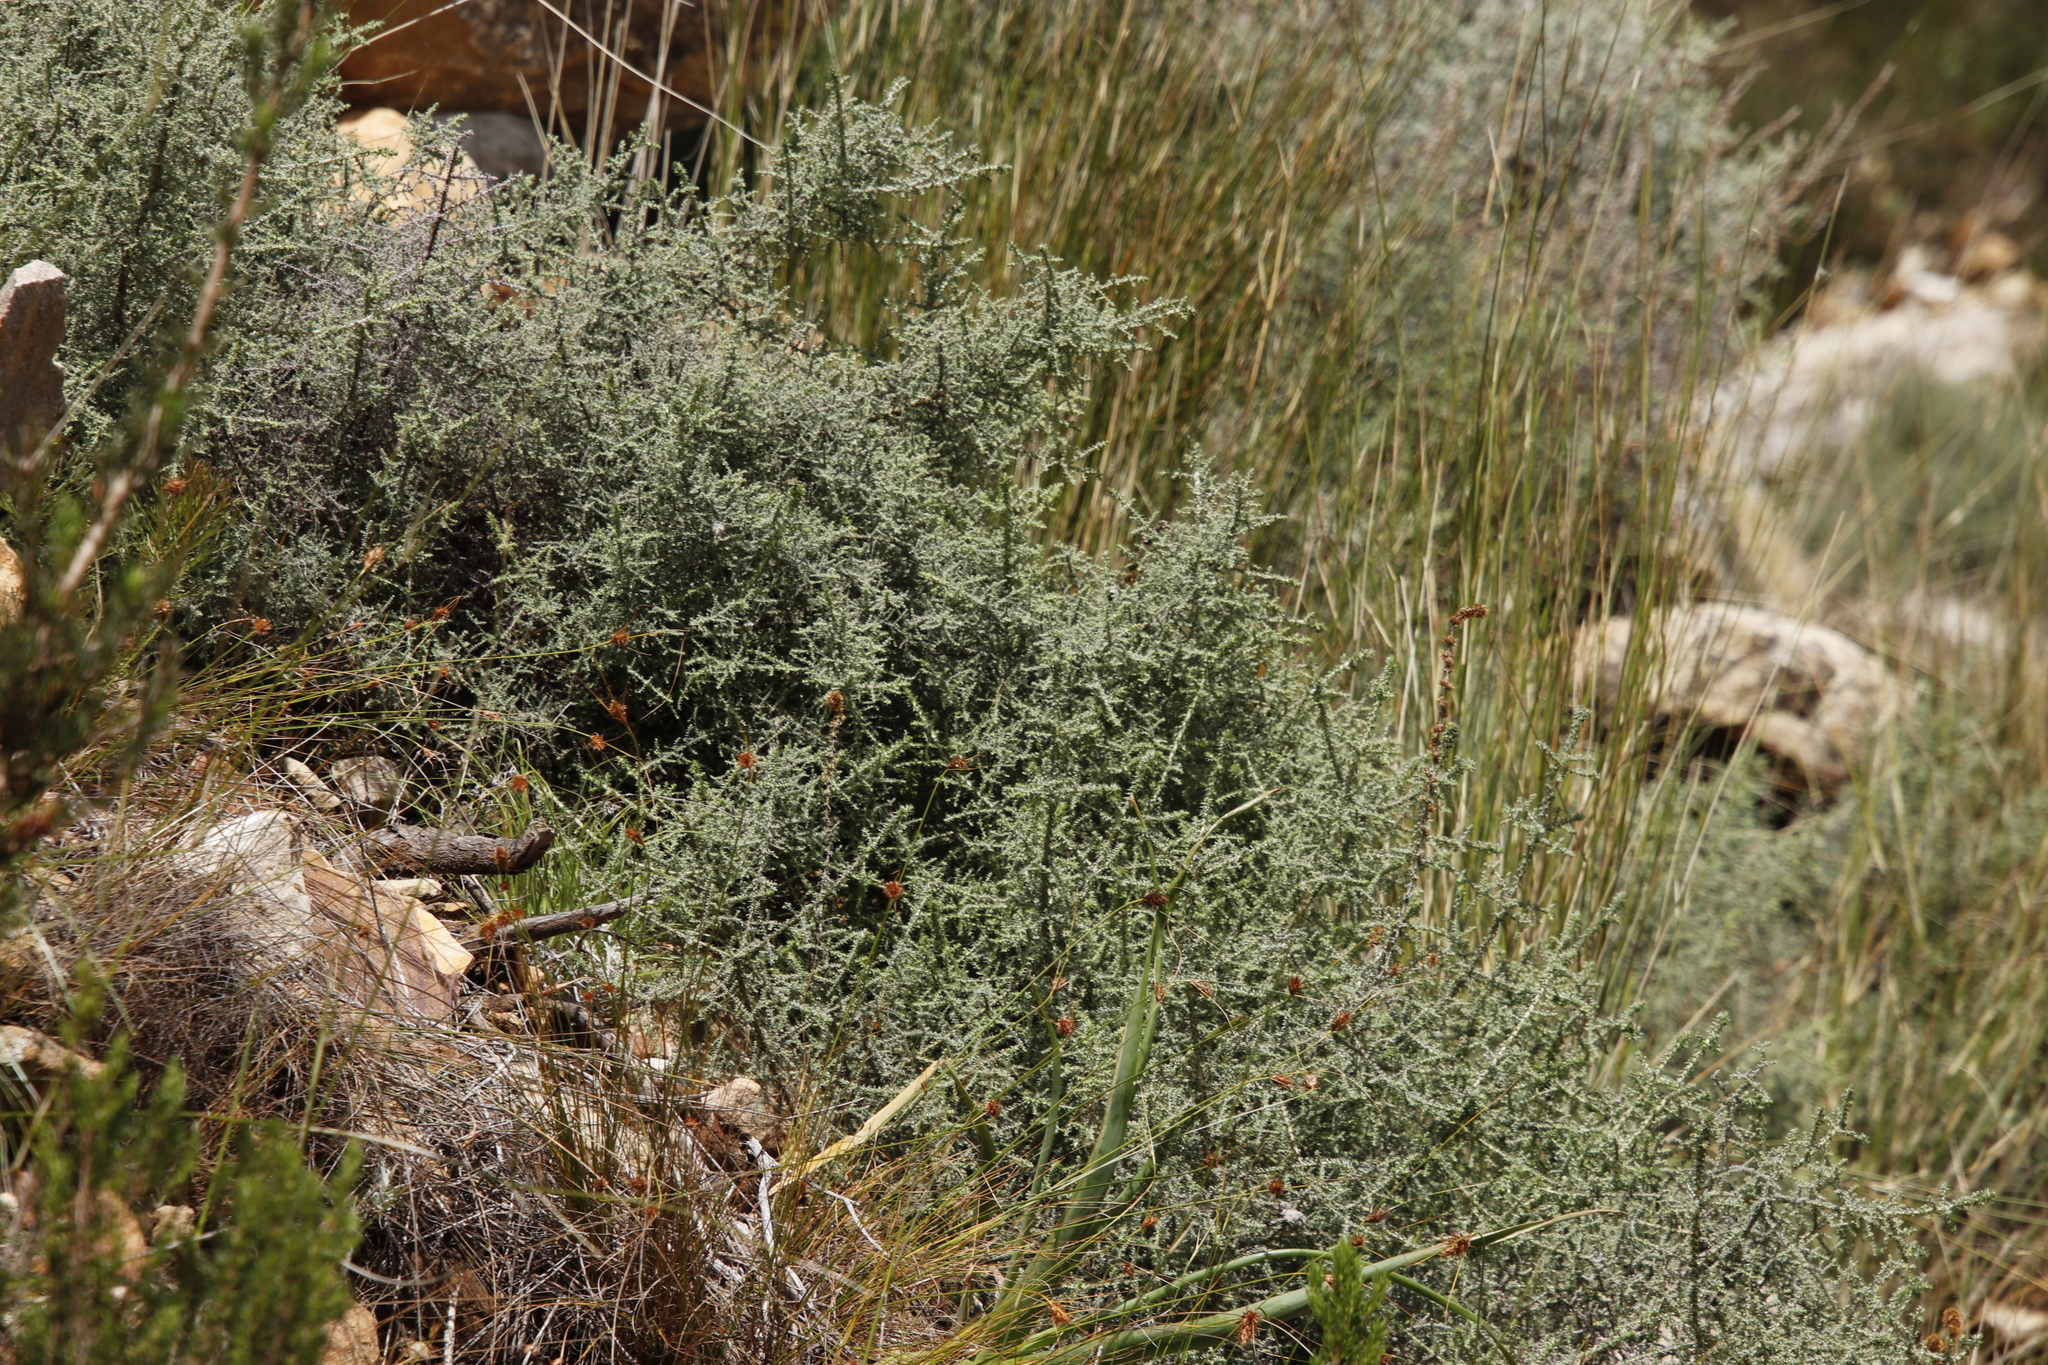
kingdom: Plantae
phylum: Tracheophyta
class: Magnoliopsida
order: Asterales
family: Asteraceae
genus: Seriphium
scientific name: Seriphium plumosum
